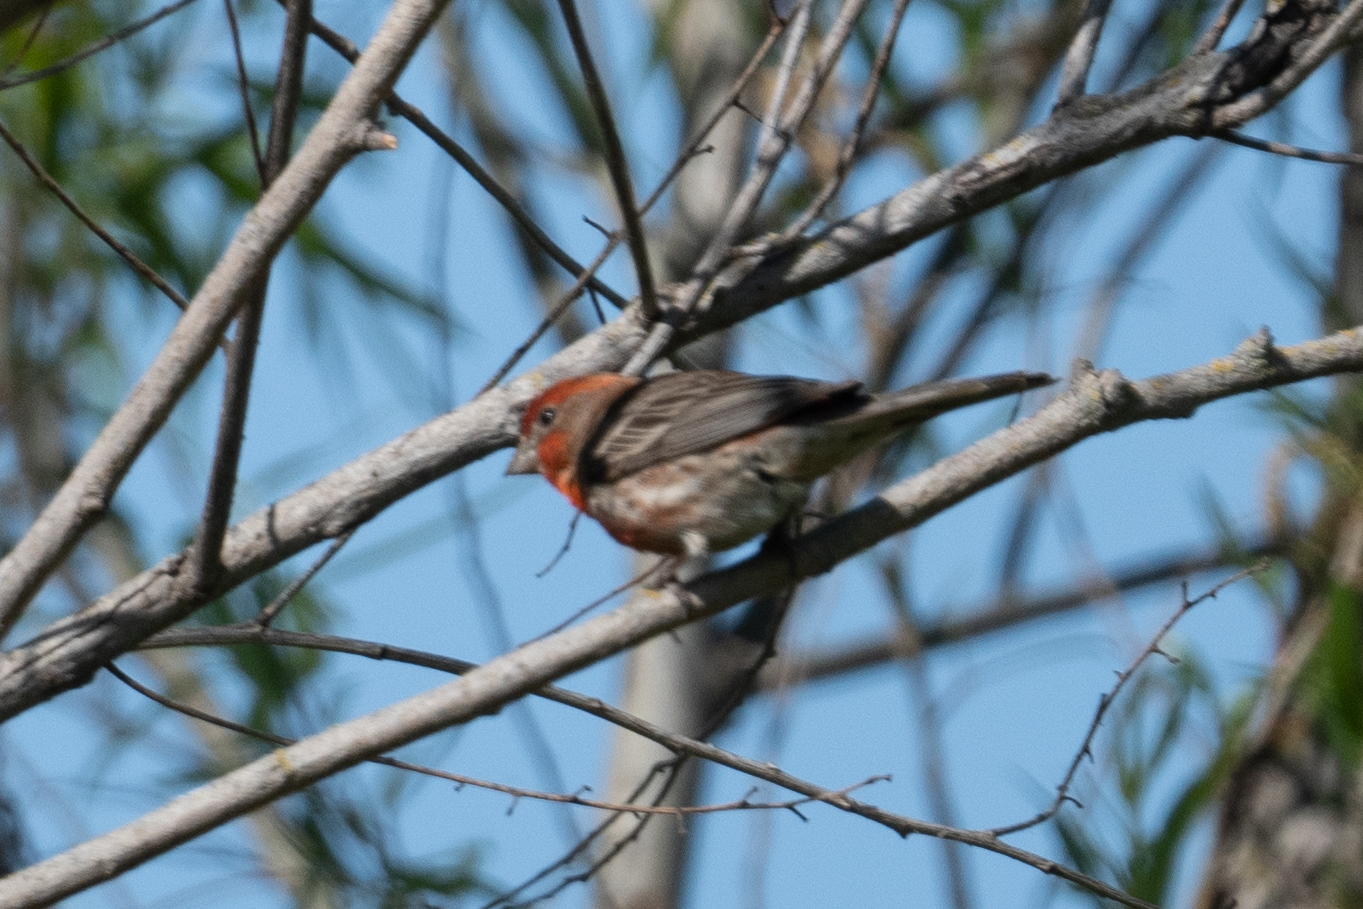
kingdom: Animalia
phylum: Chordata
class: Aves
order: Passeriformes
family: Fringillidae
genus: Haemorhous
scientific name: Haemorhous mexicanus
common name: House finch
